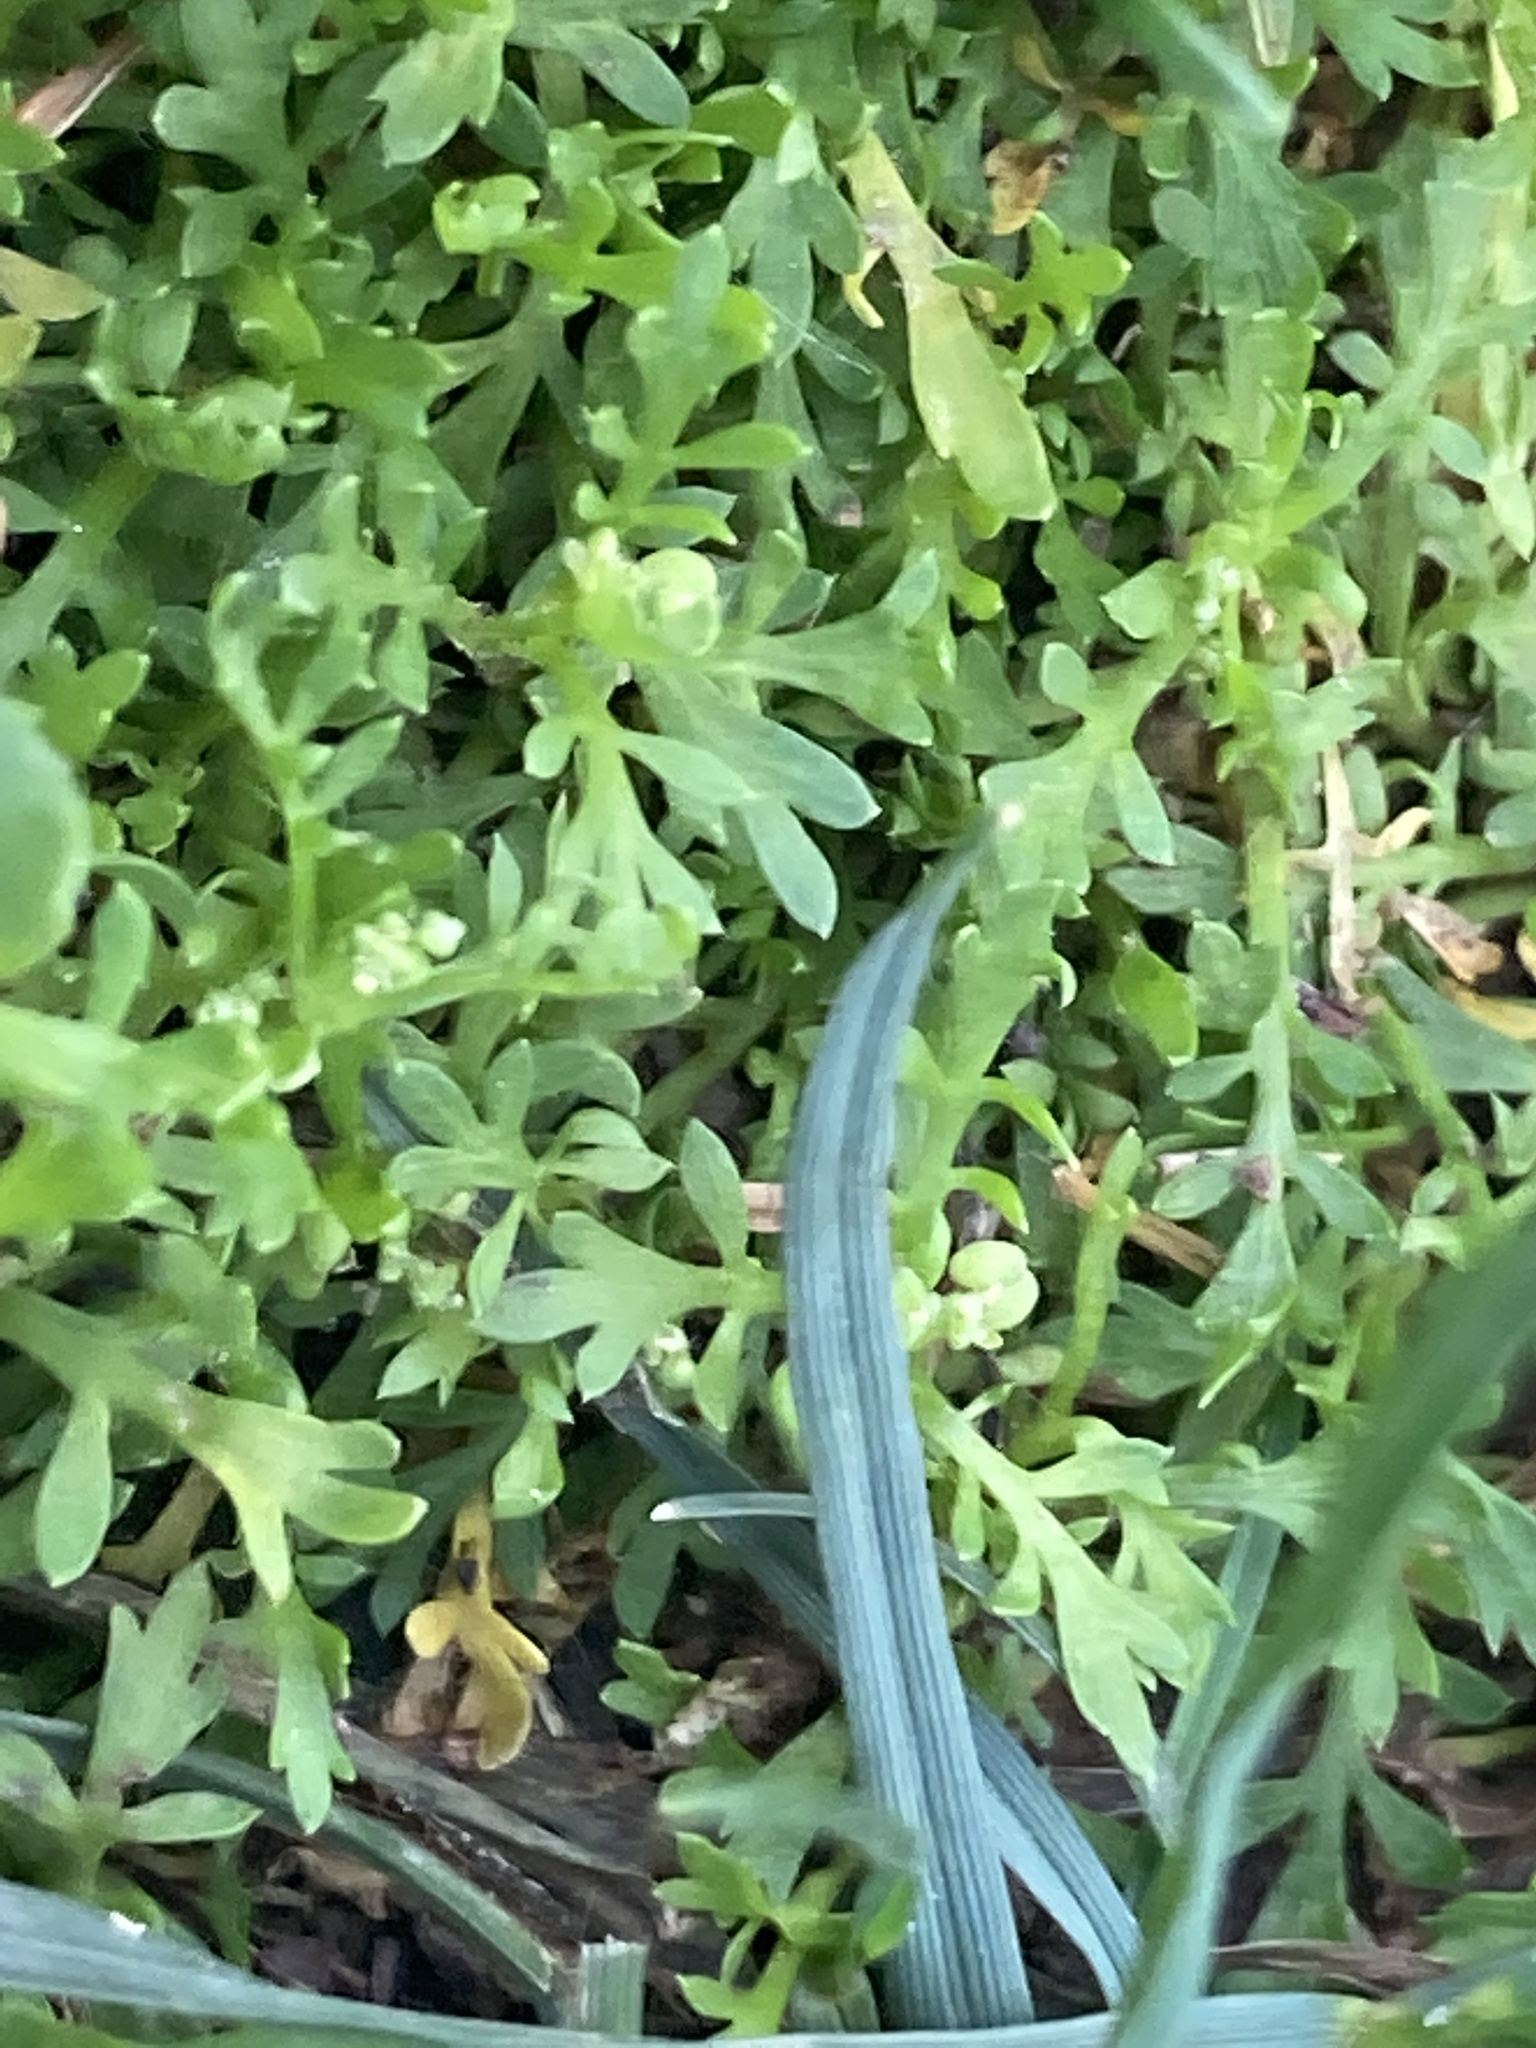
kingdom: Plantae
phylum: Tracheophyta
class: Magnoliopsida
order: Brassicales
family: Brassicaceae
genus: Lepidium
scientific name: Lepidium didymum
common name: Lesser swinecress
